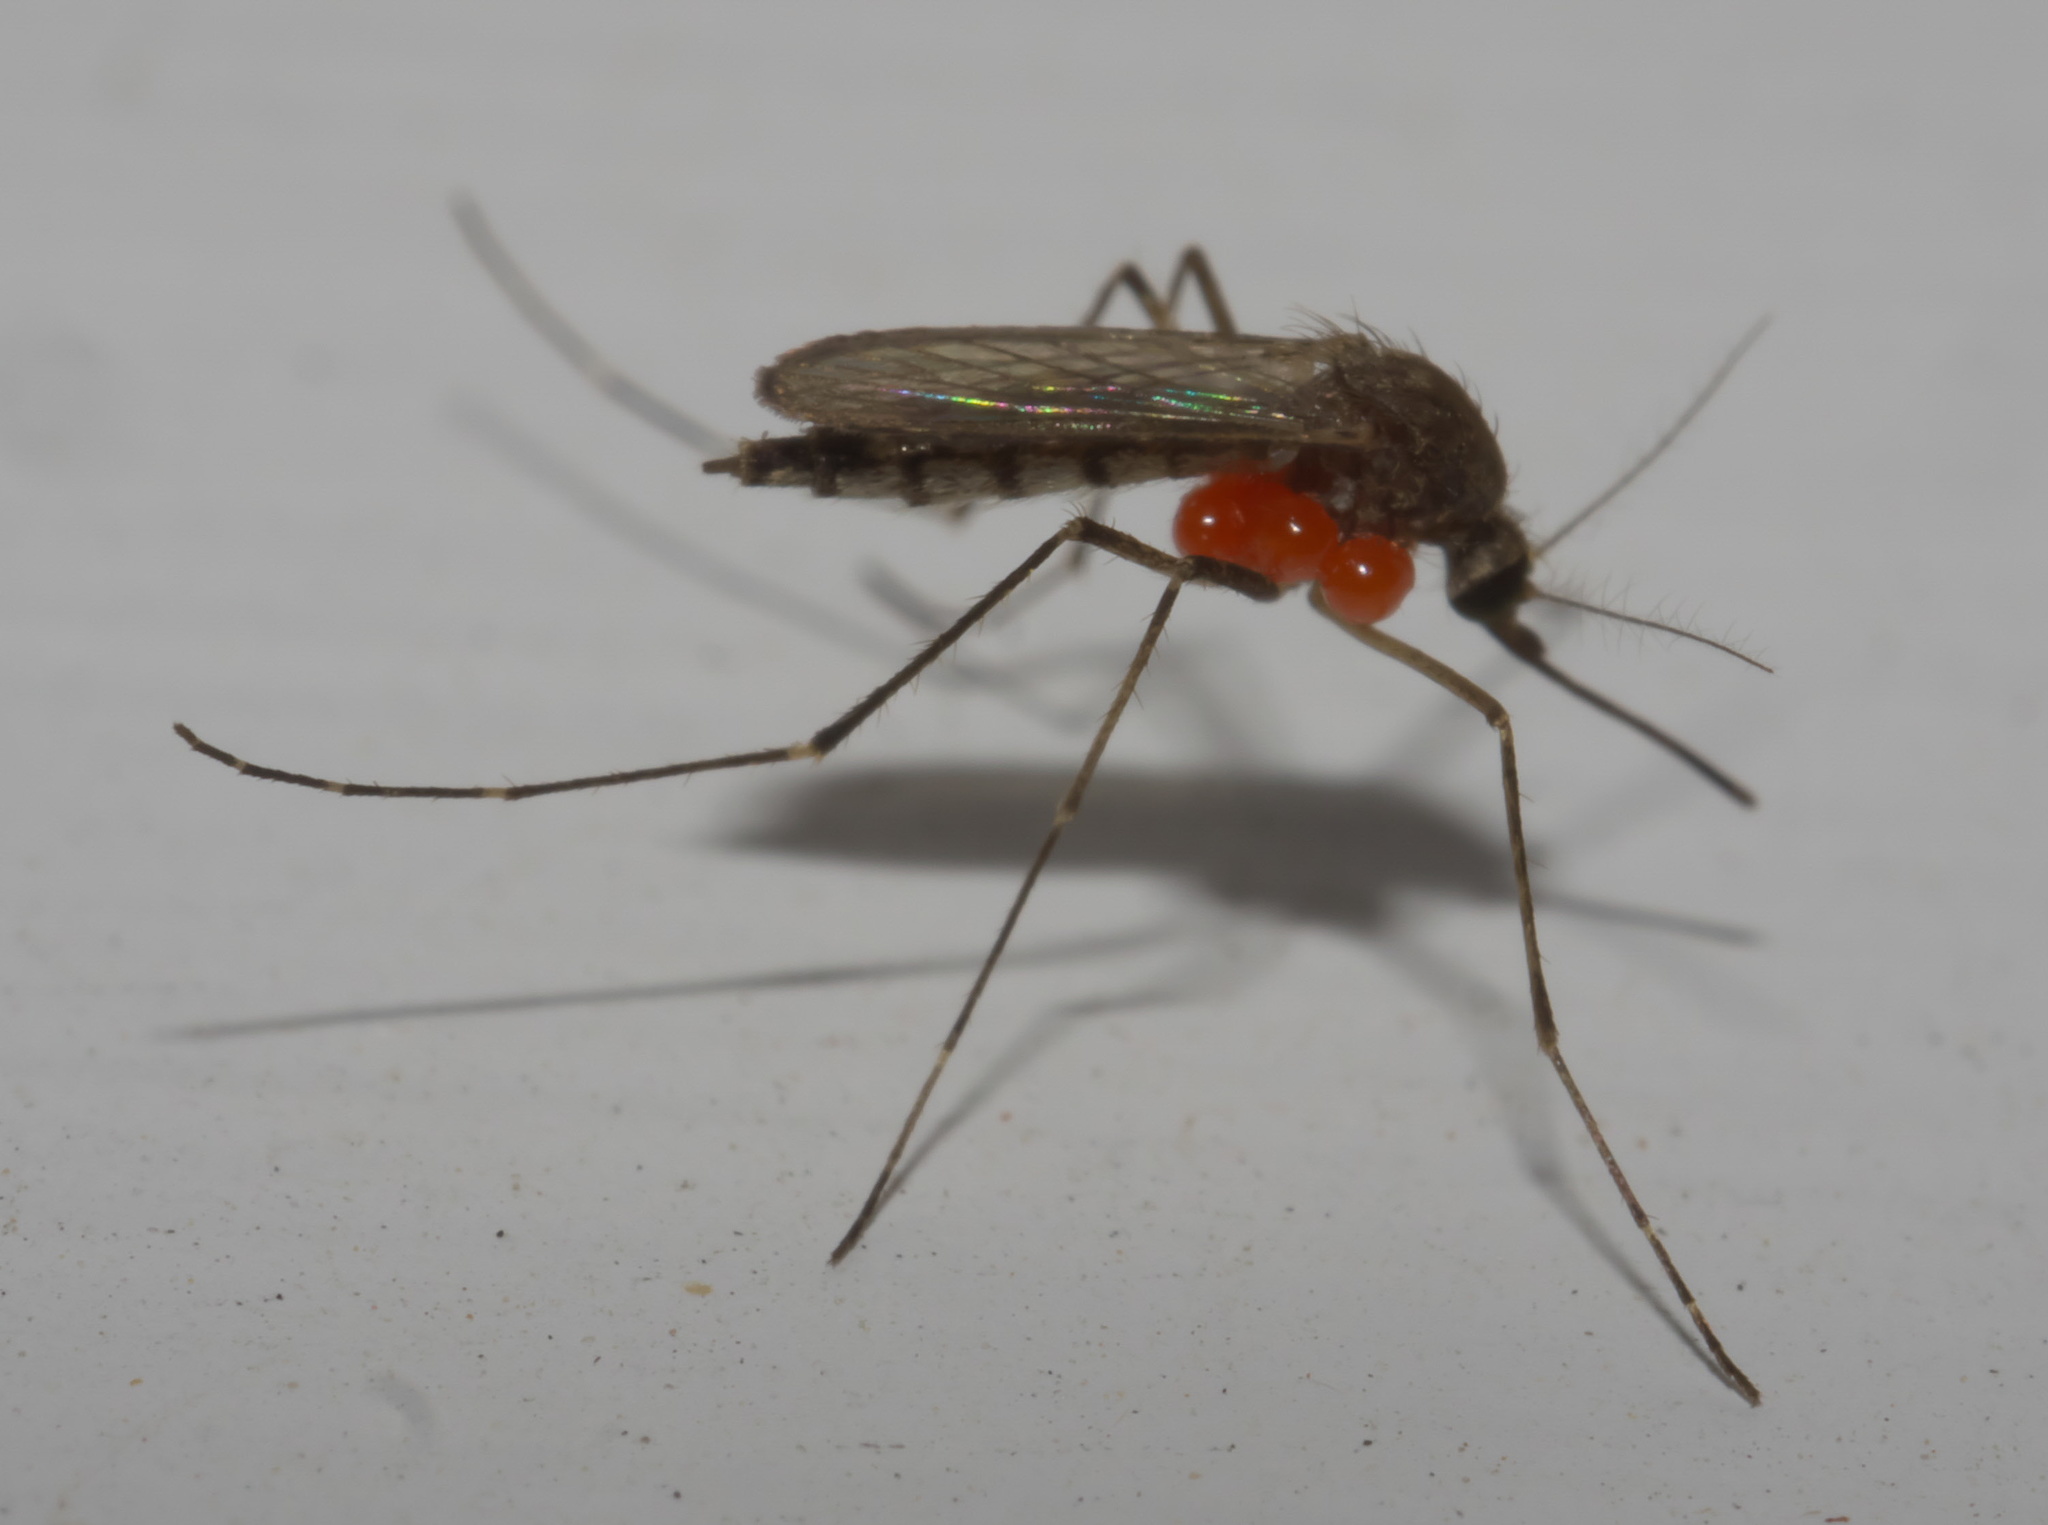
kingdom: Animalia
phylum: Arthropoda
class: Insecta
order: Diptera
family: Culicidae
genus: Aedes
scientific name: Aedes vexans
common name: Inland floodwater mosquito
